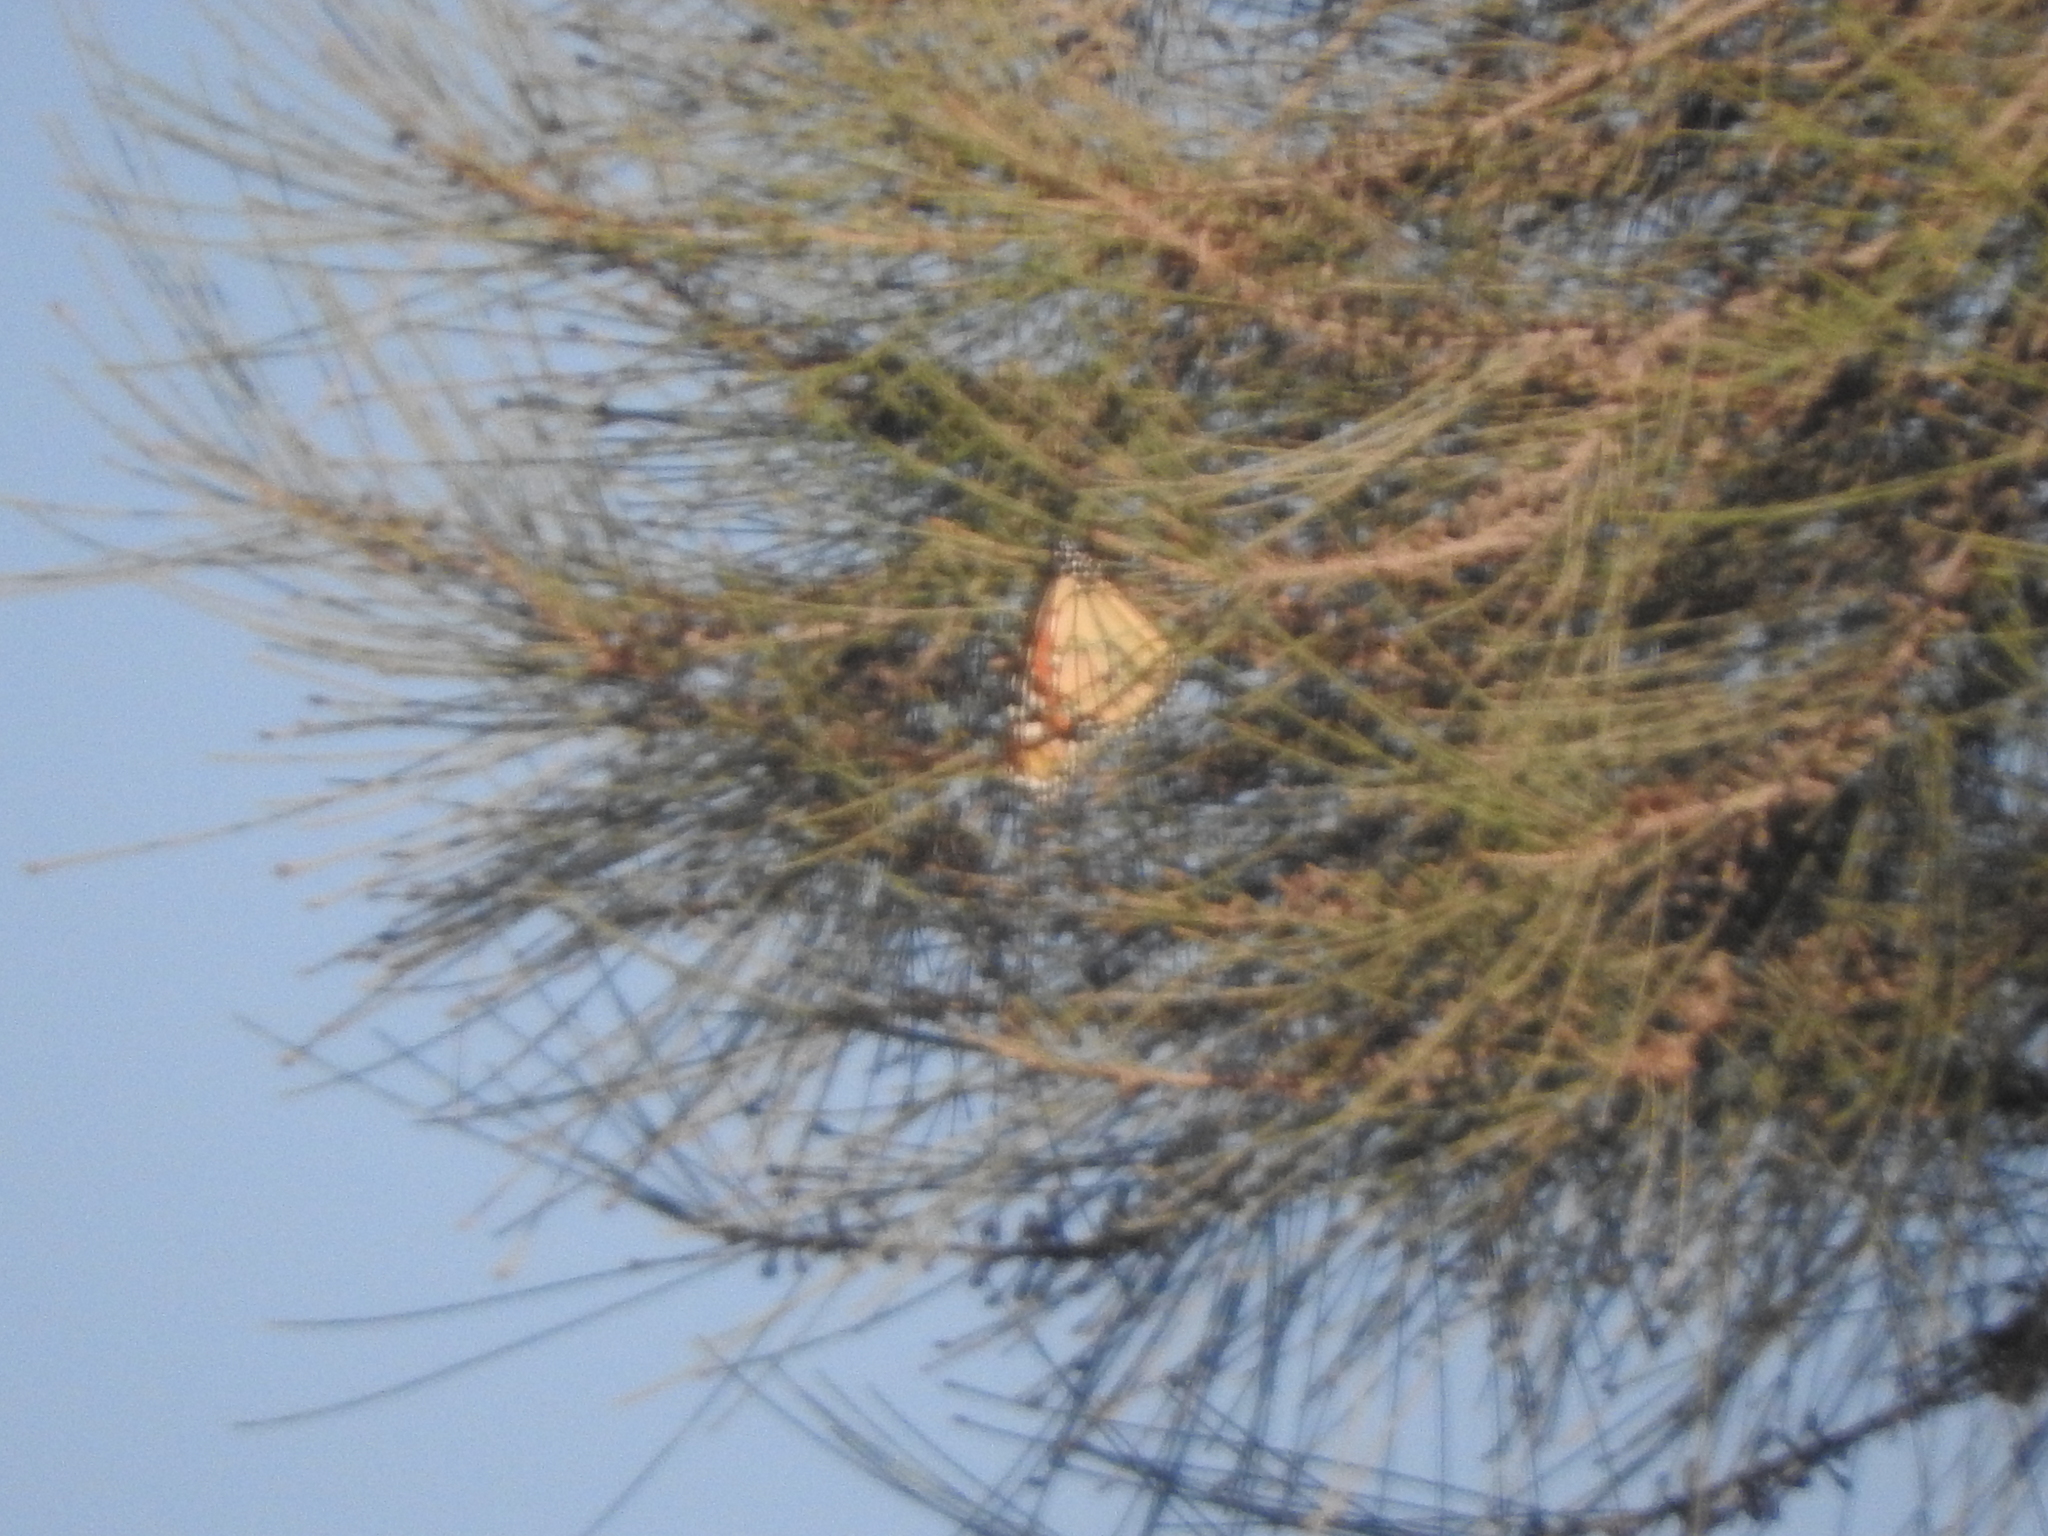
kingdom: Animalia
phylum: Arthropoda
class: Insecta
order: Lepidoptera
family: Nymphalidae
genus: Danaus
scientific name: Danaus plexippus
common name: Monarch
